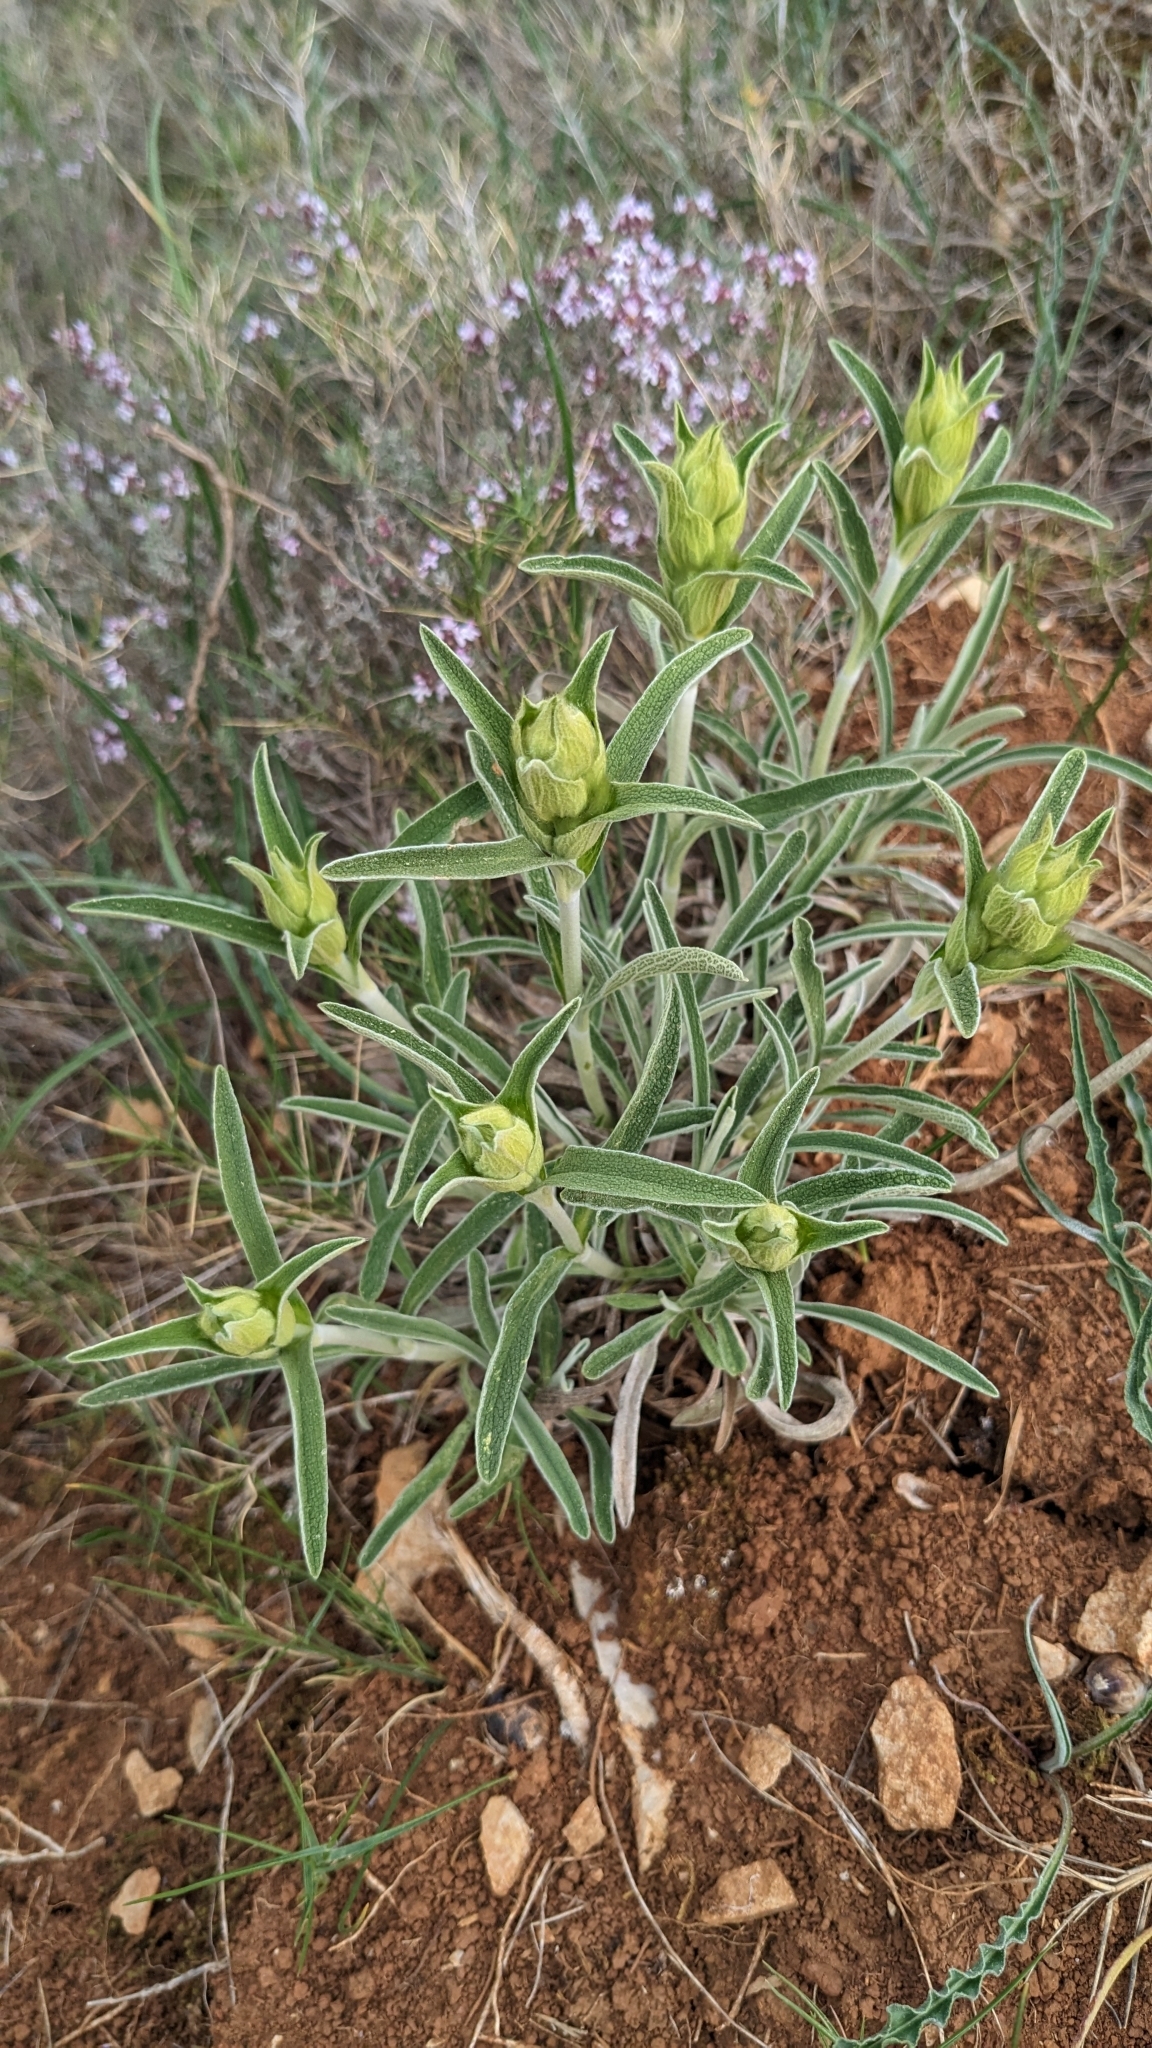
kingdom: Plantae
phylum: Tracheophyta
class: Magnoliopsida
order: Lamiales
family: Lamiaceae
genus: Phlomis
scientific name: Phlomis lychnitis
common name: Lampwickplant
